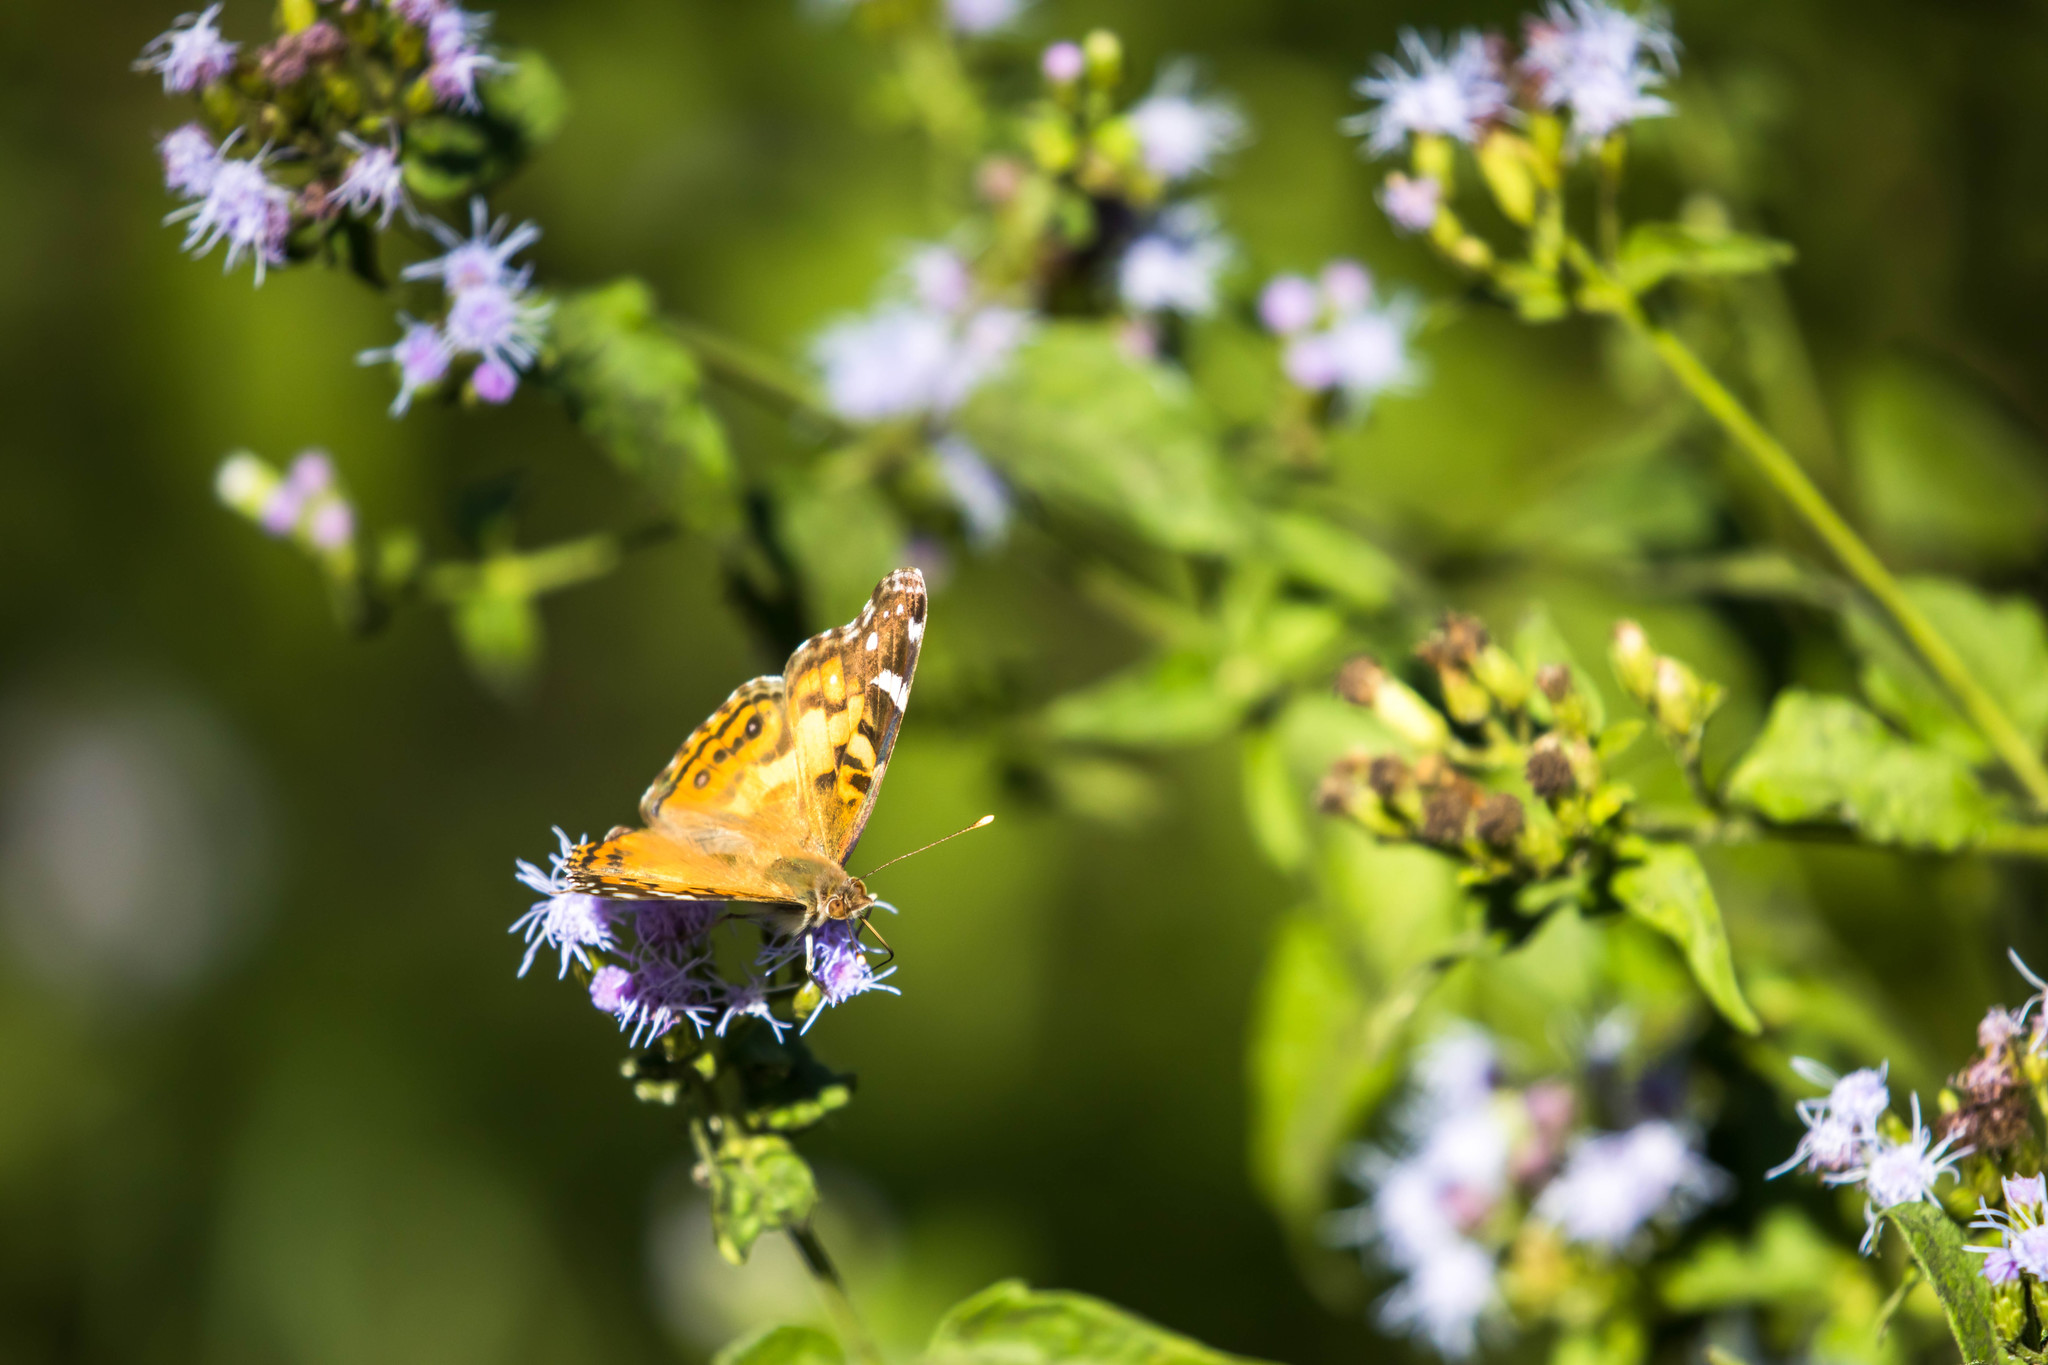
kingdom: Animalia
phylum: Arthropoda
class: Insecta
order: Lepidoptera
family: Nymphalidae
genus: Vanessa
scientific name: Vanessa virginiensis
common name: American lady
